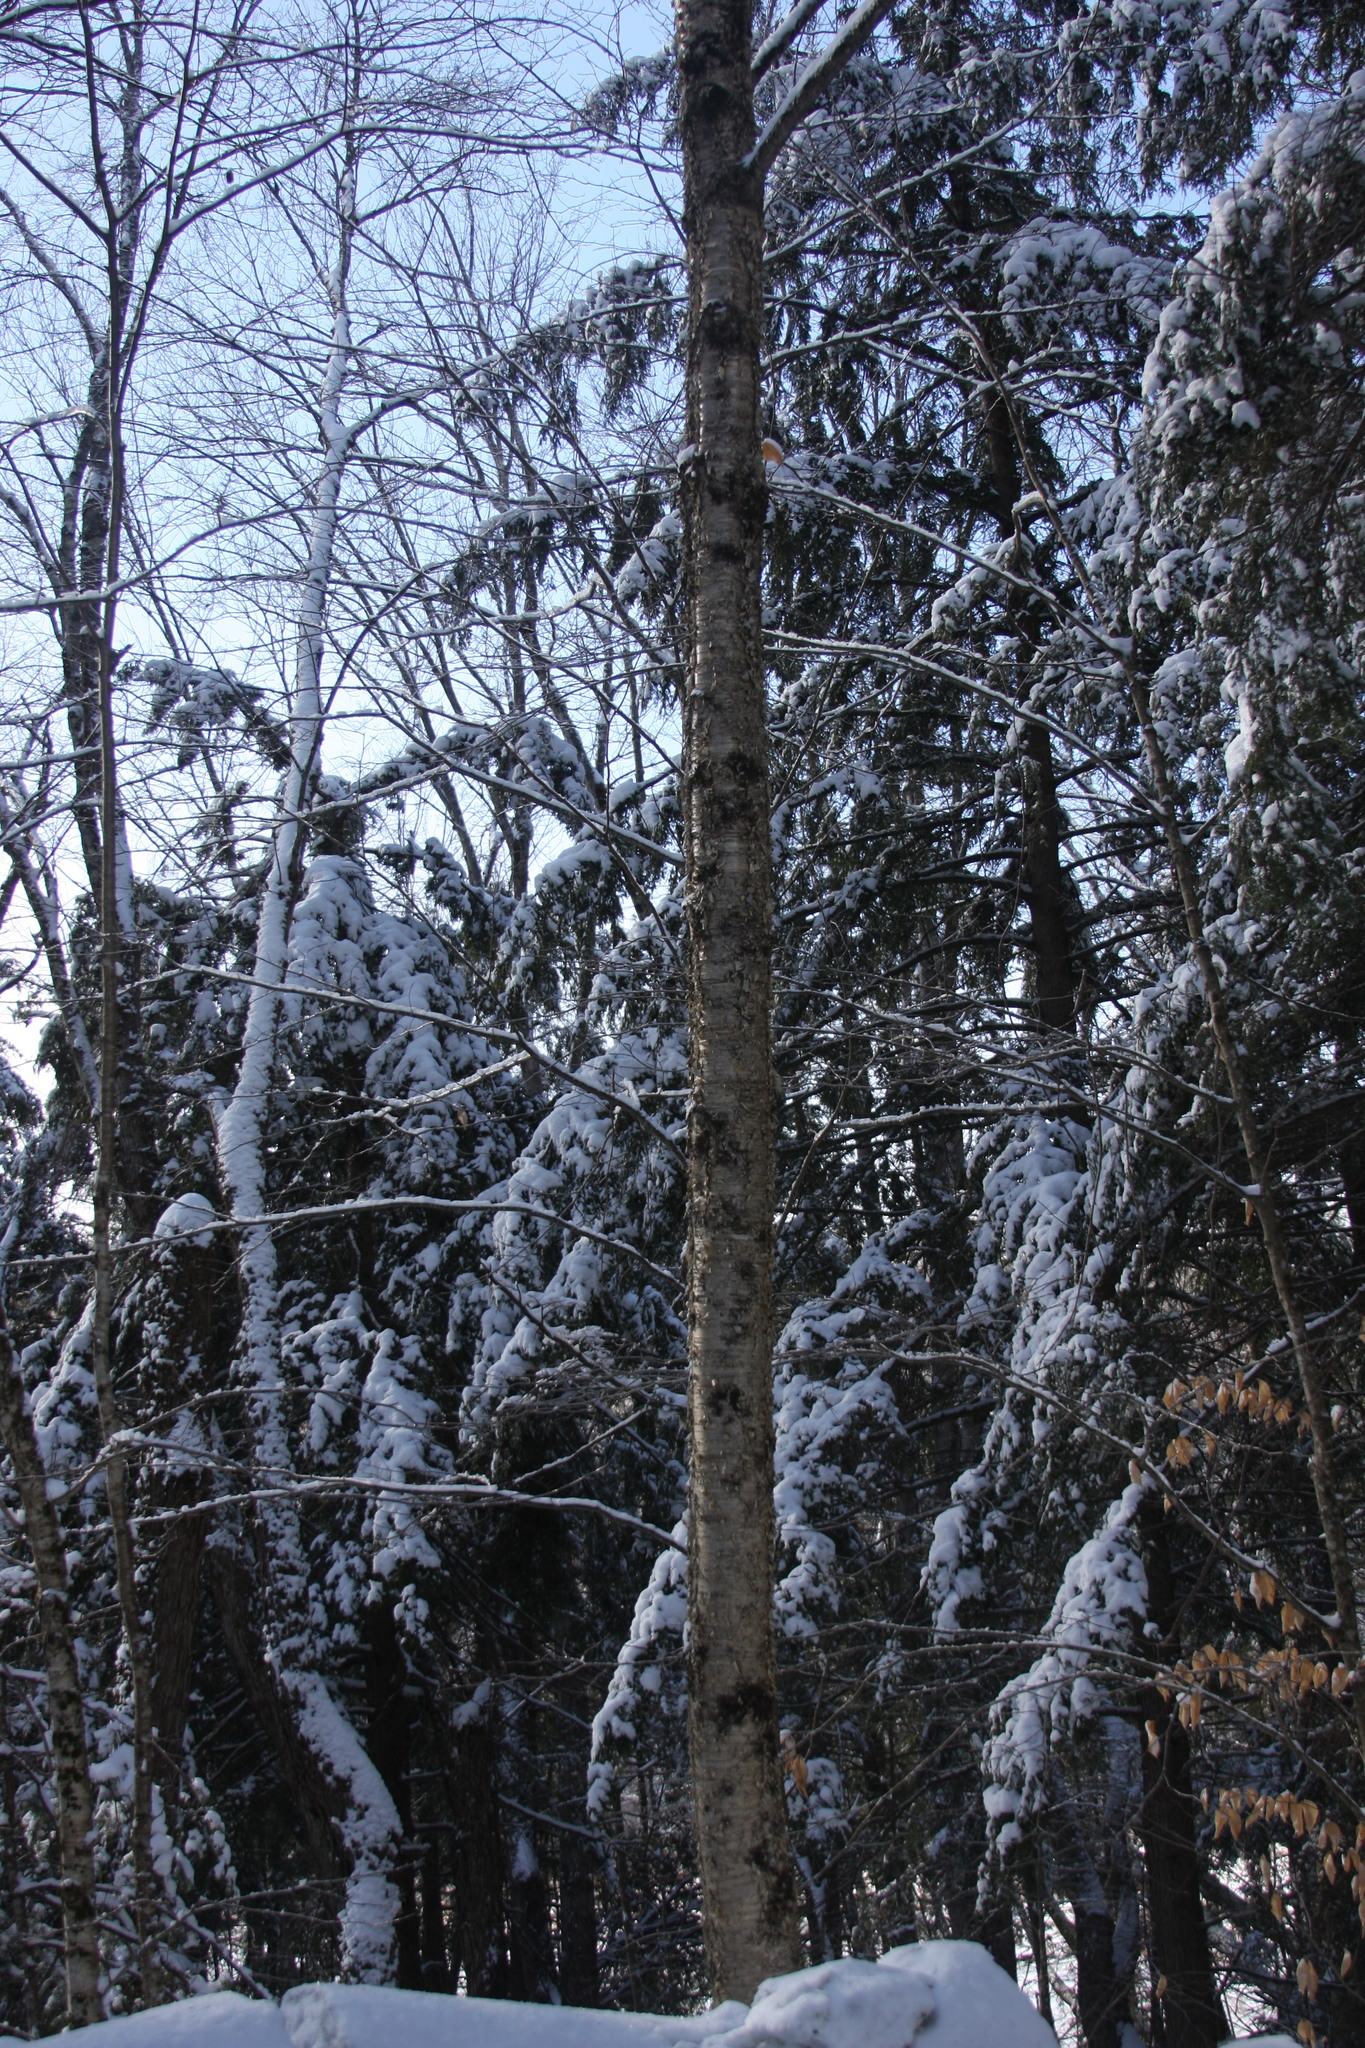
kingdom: Plantae
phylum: Tracheophyta
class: Magnoliopsida
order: Fagales
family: Betulaceae
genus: Betula
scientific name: Betula alleghaniensis
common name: Yellow birch
